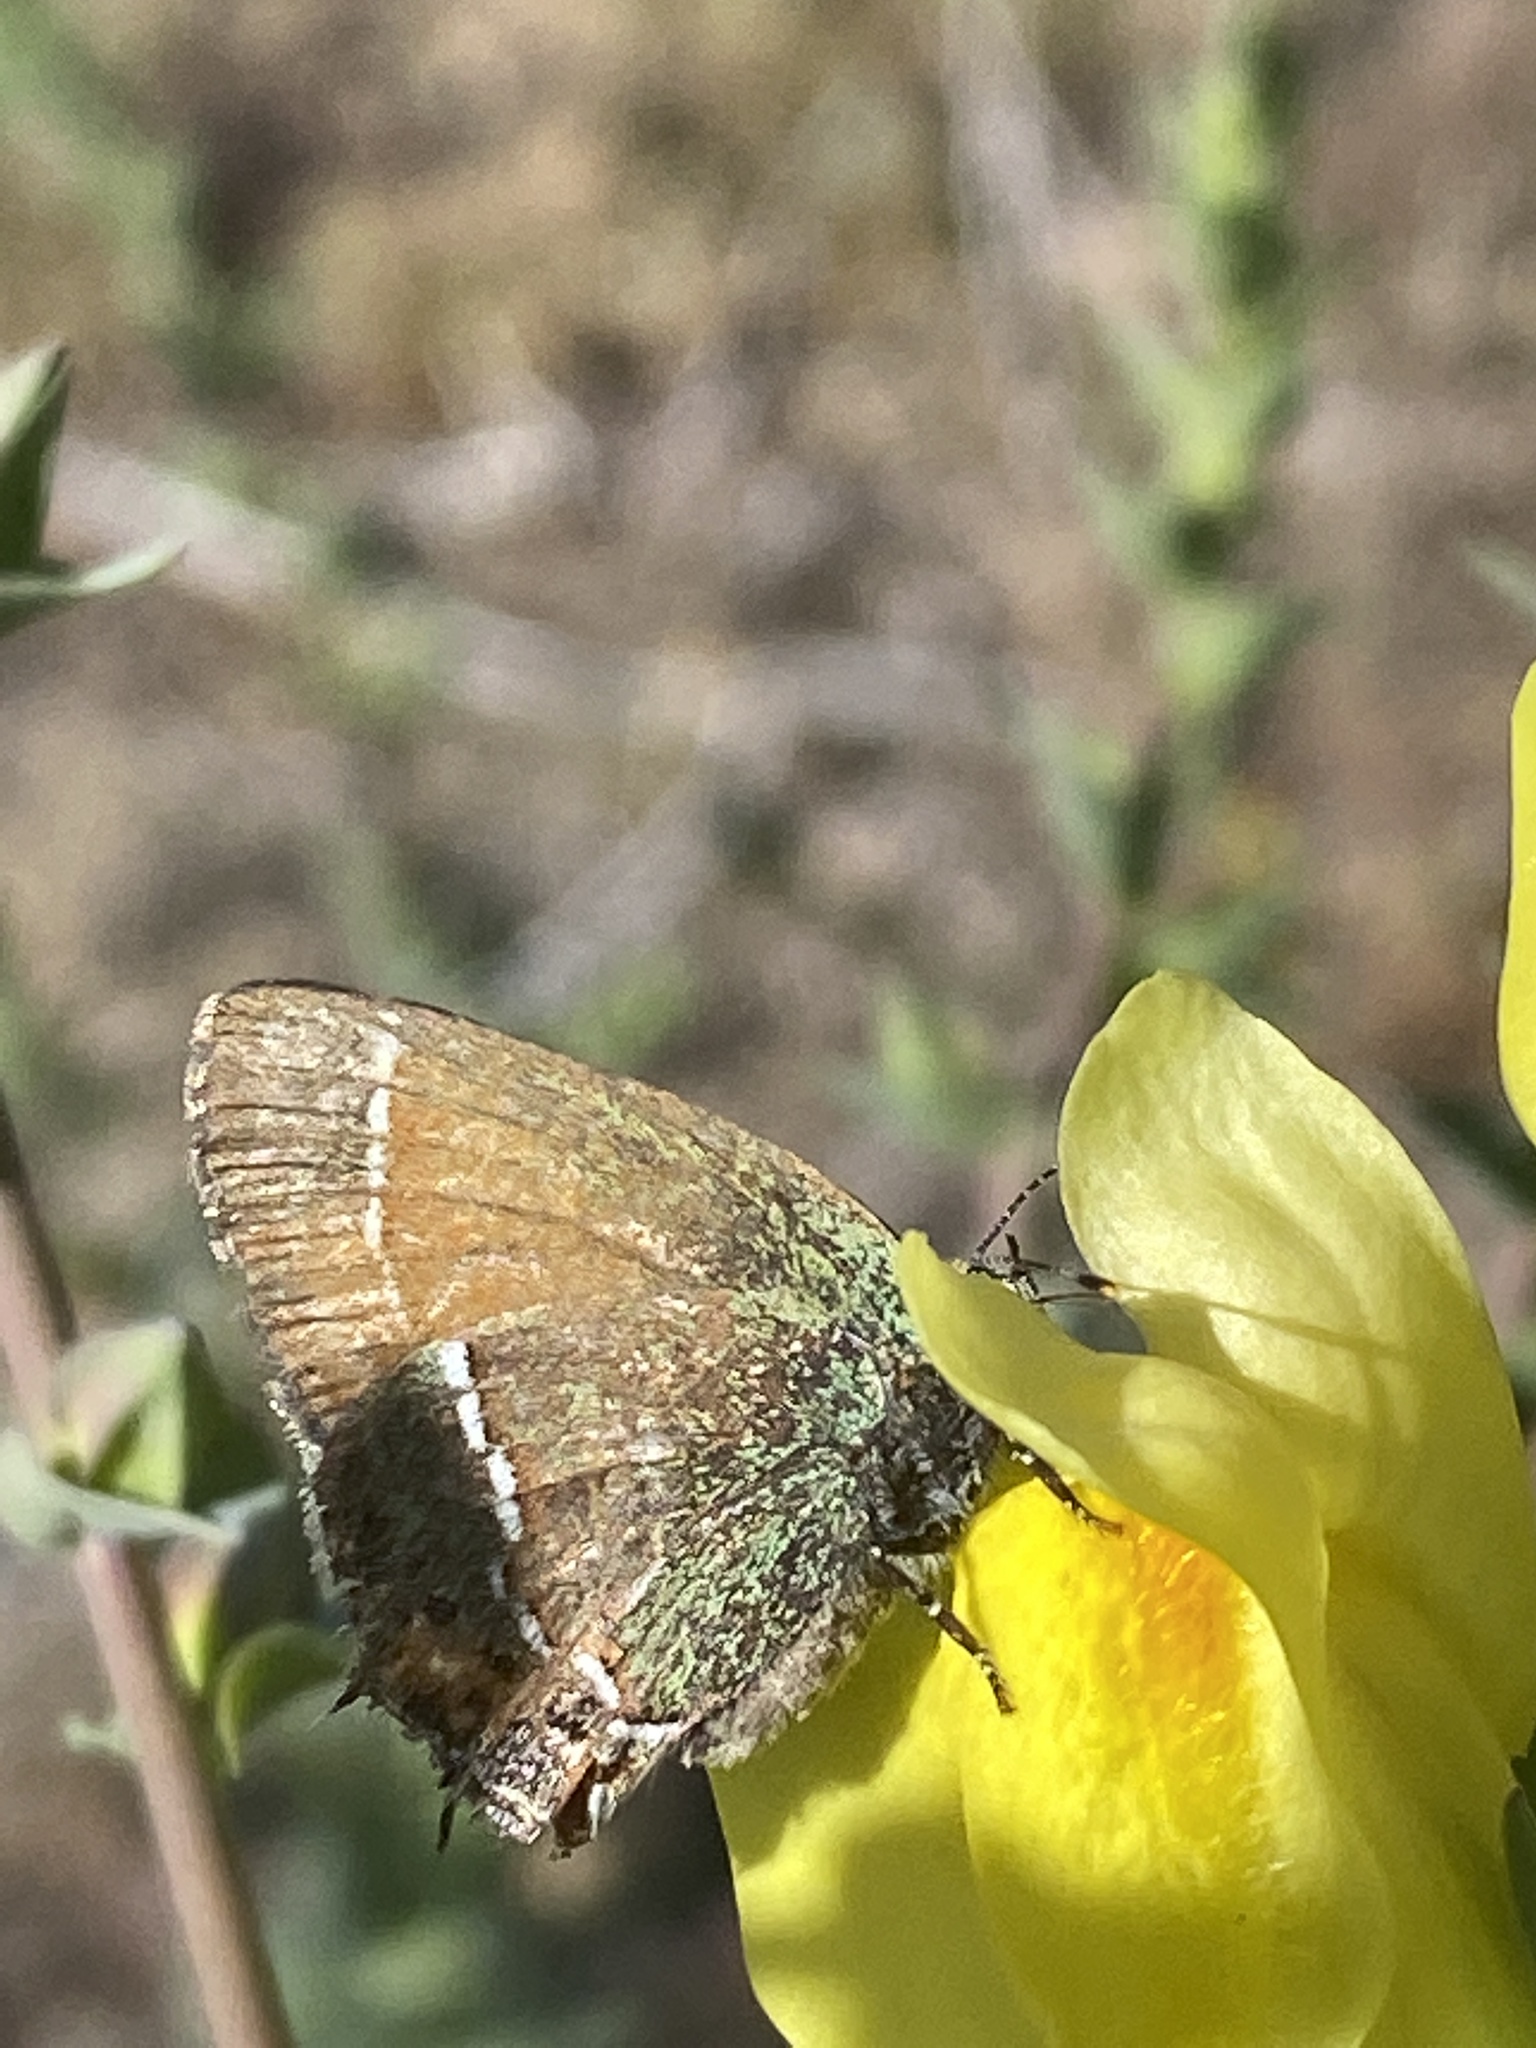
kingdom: Animalia
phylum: Arthropoda
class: Insecta
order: Lepidoptera
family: Lycaenidae
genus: Mitoura
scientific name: Mitoura siva
